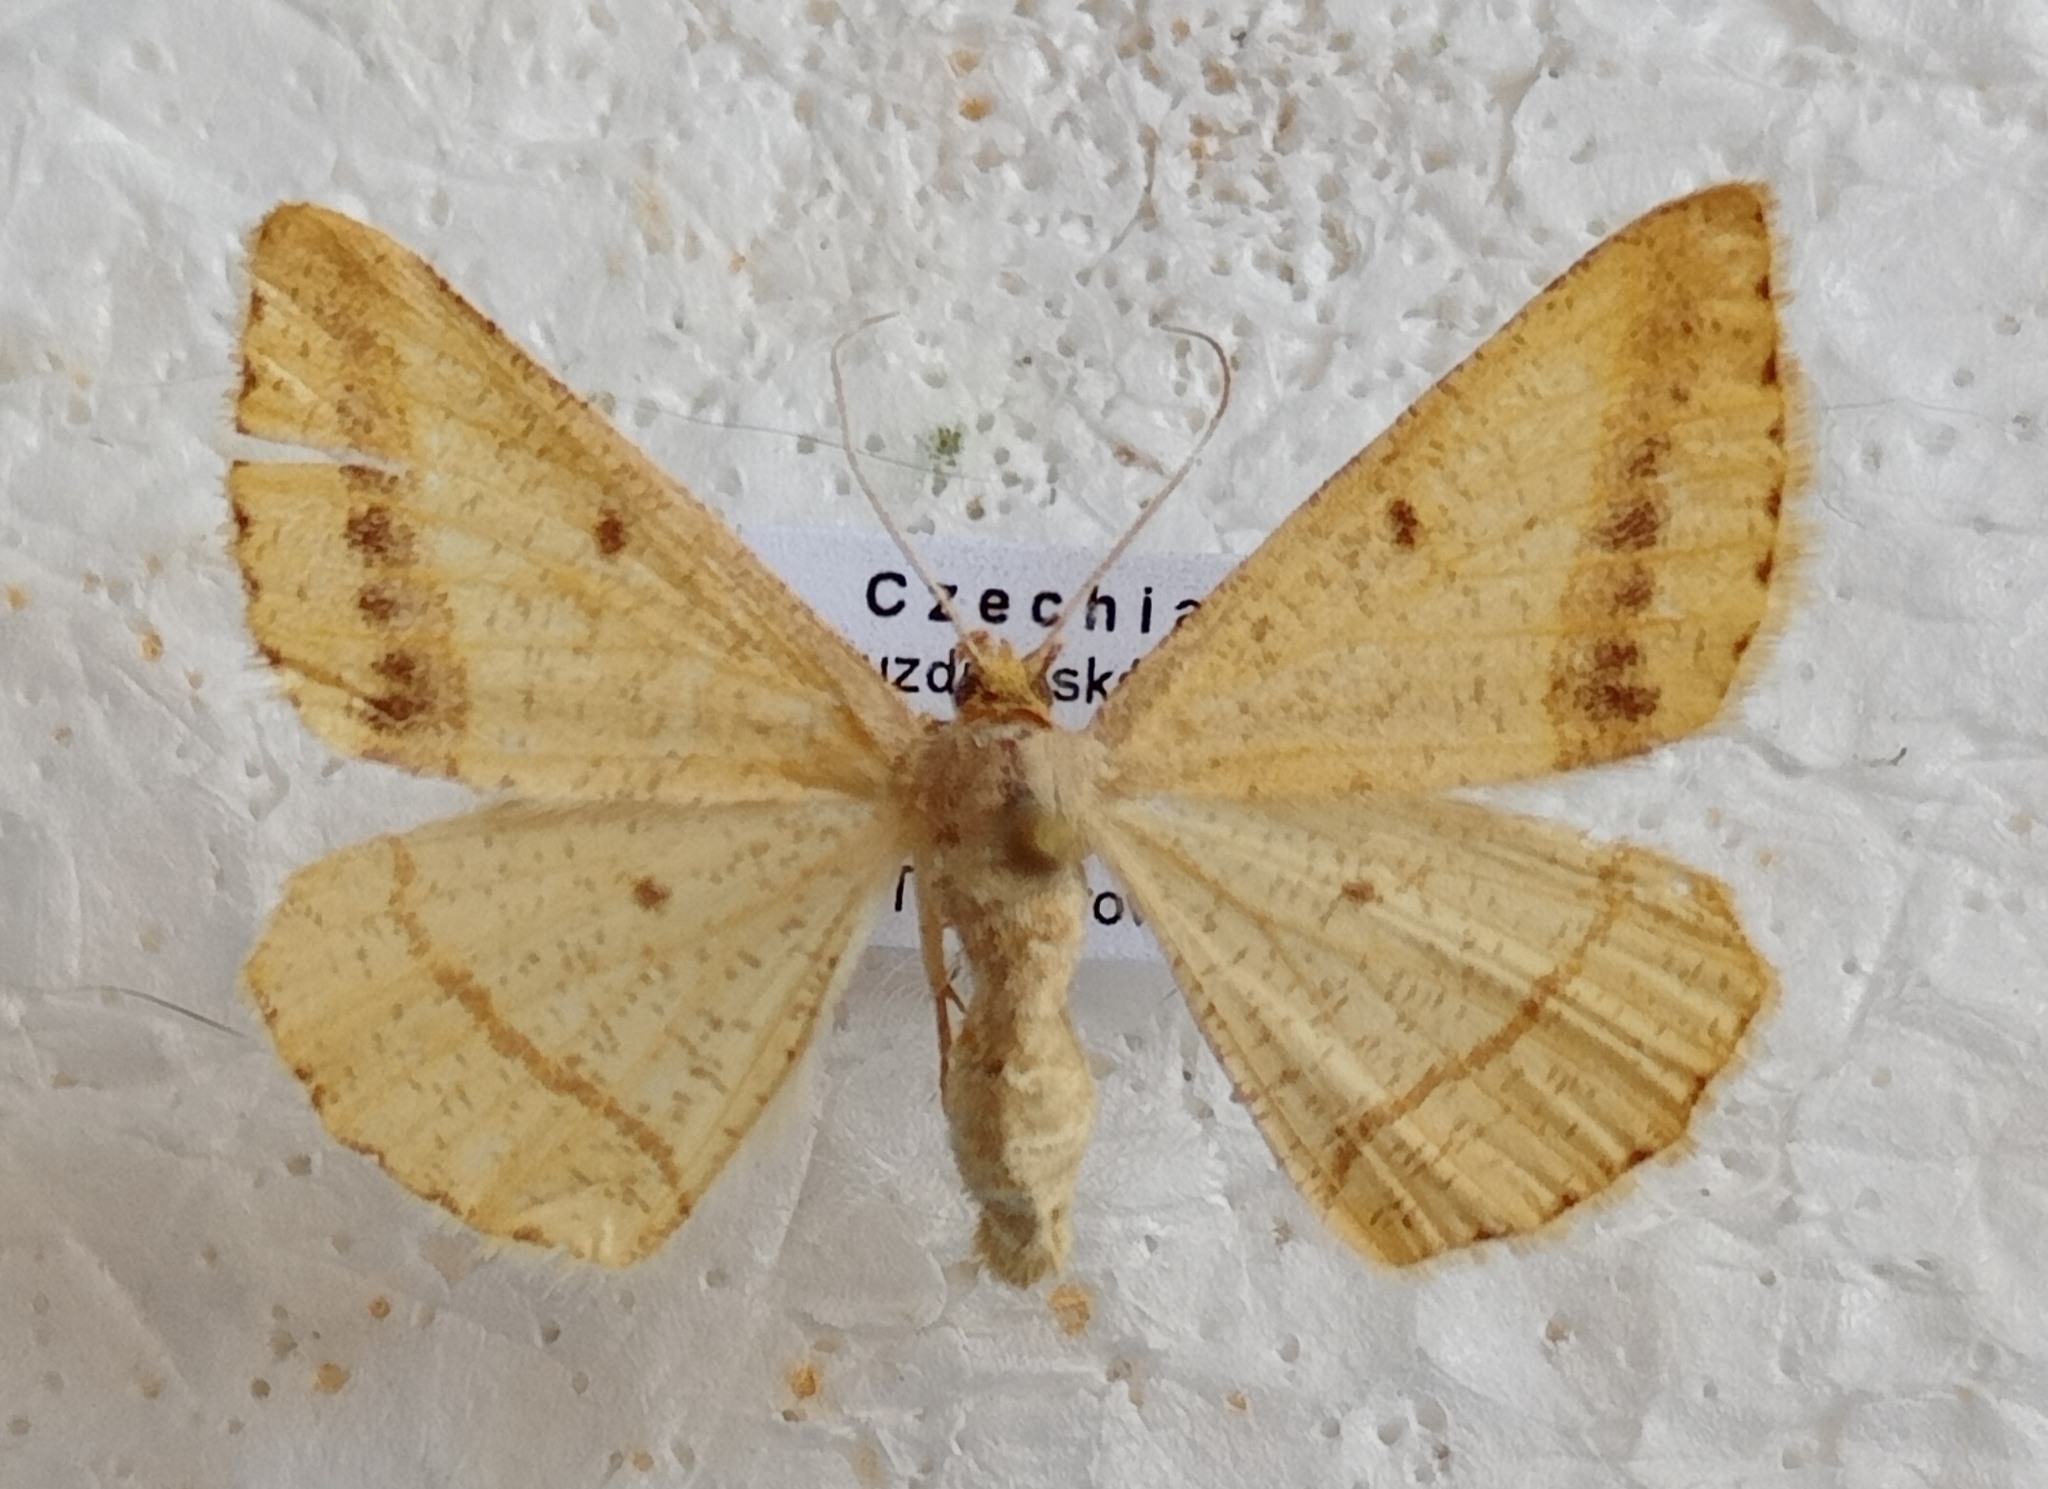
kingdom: Animalia
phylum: Arthropoda
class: Insecta
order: Lepidoptera
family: Geometridae
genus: Tephrina
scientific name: Tephrina arenacearia
